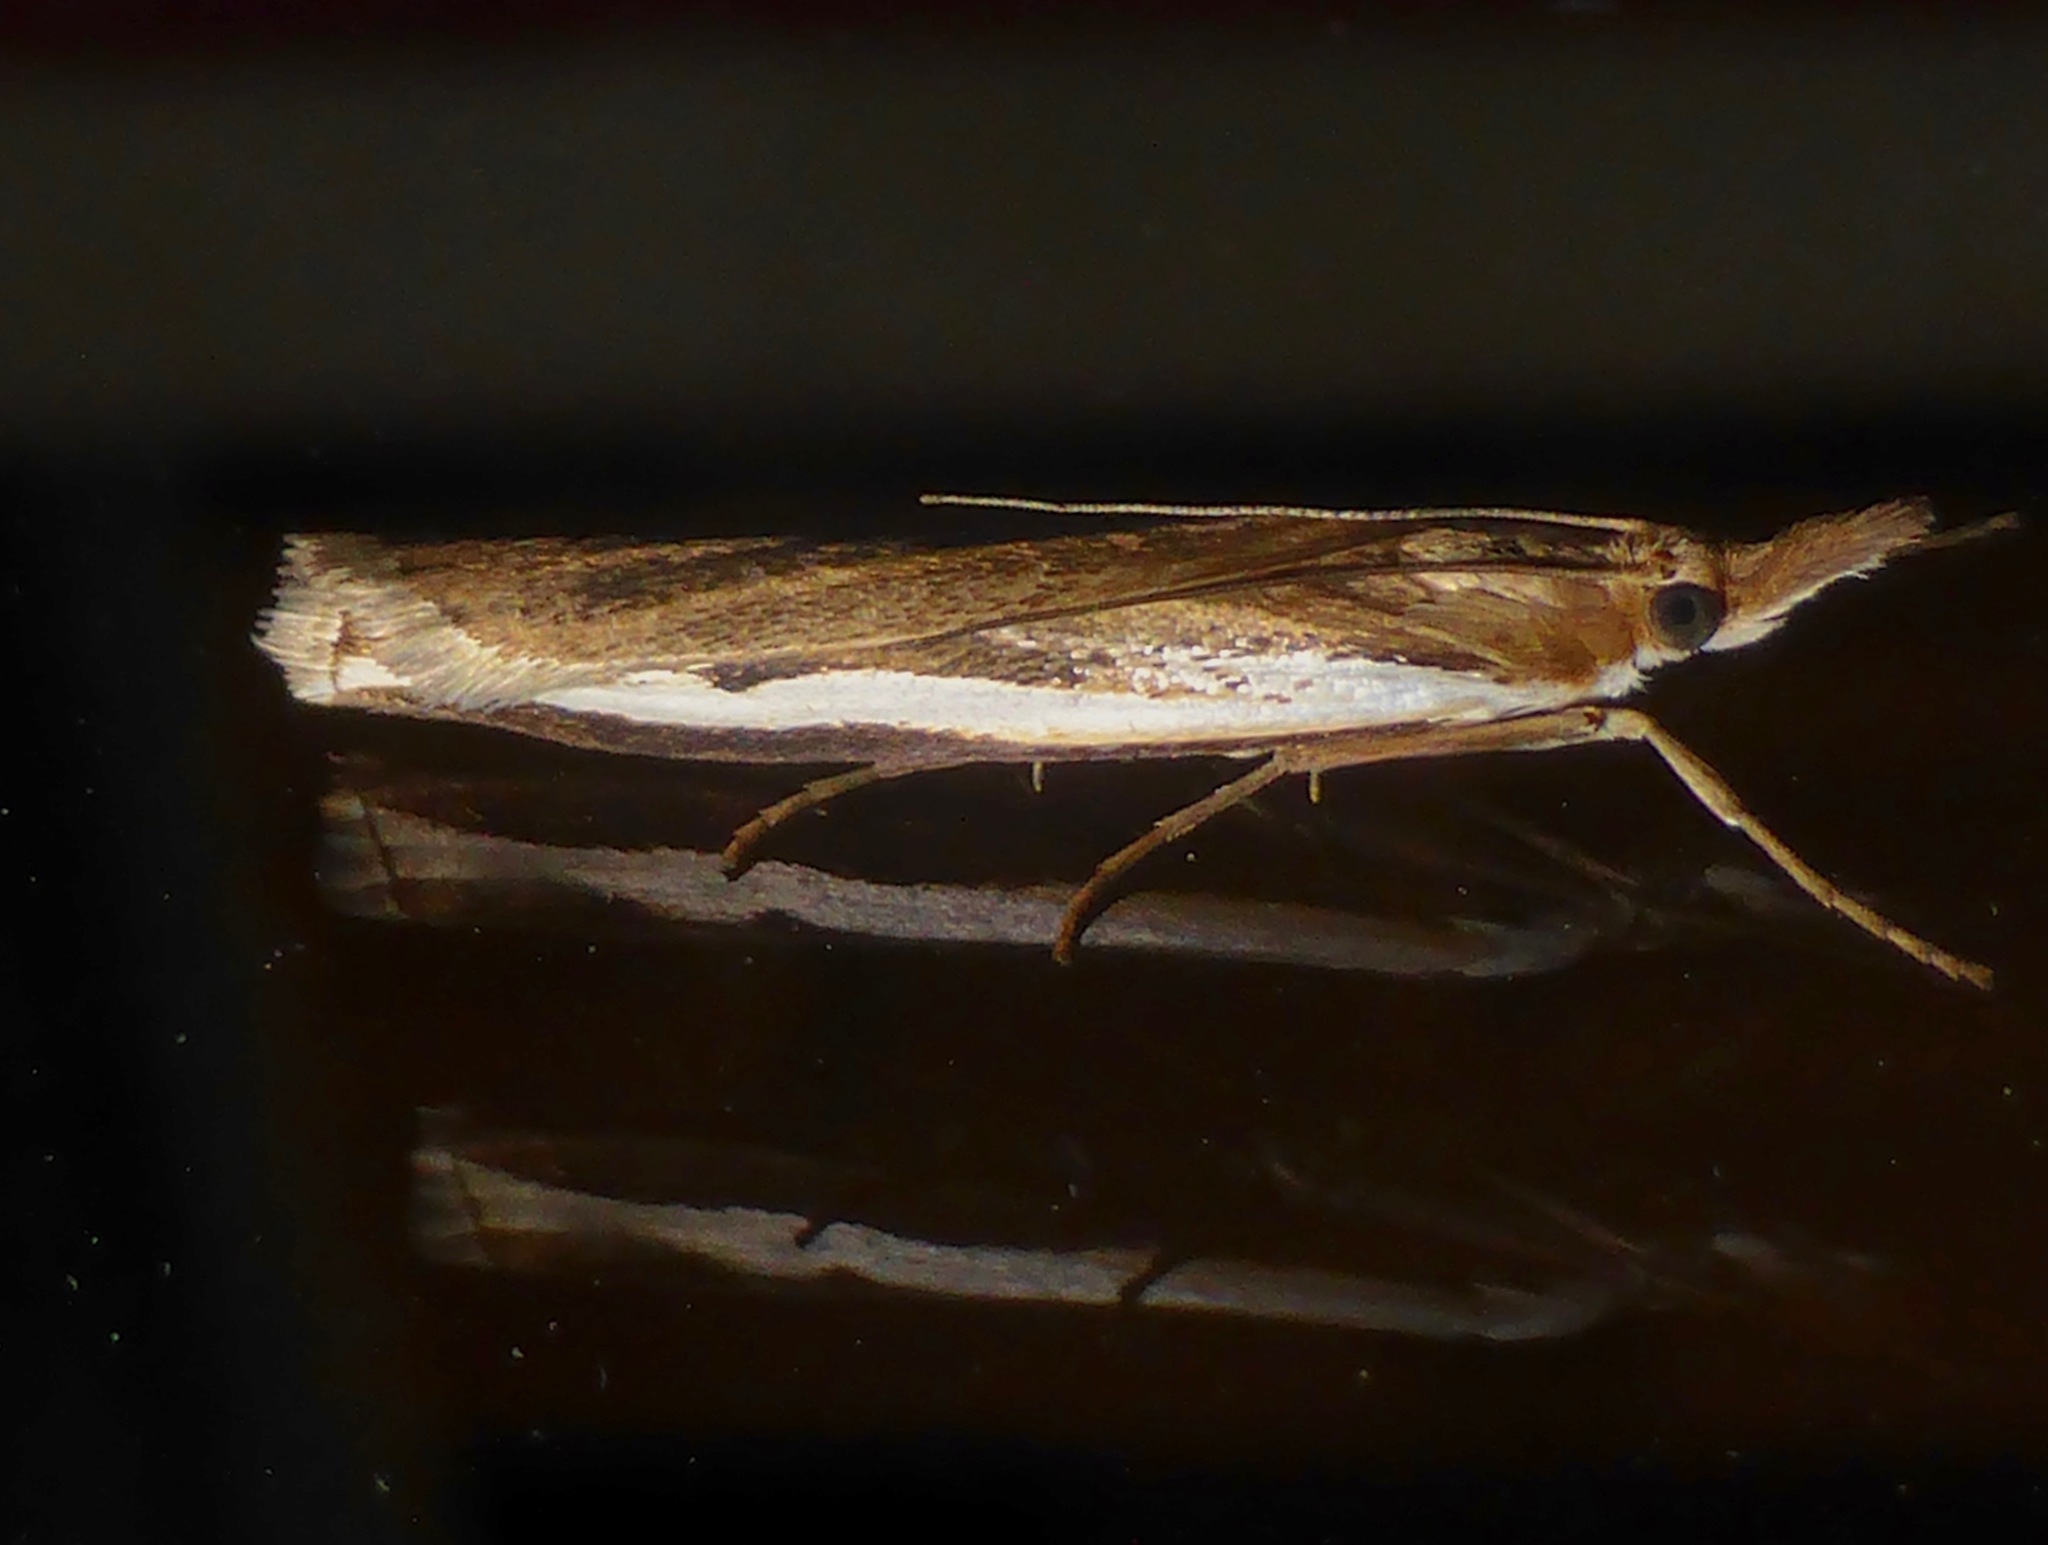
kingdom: Animalia
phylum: Arthropoda
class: Insecta
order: Lepidoptera
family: Crambidae
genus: Orocrambus
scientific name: Orocrambus flexuosellus
